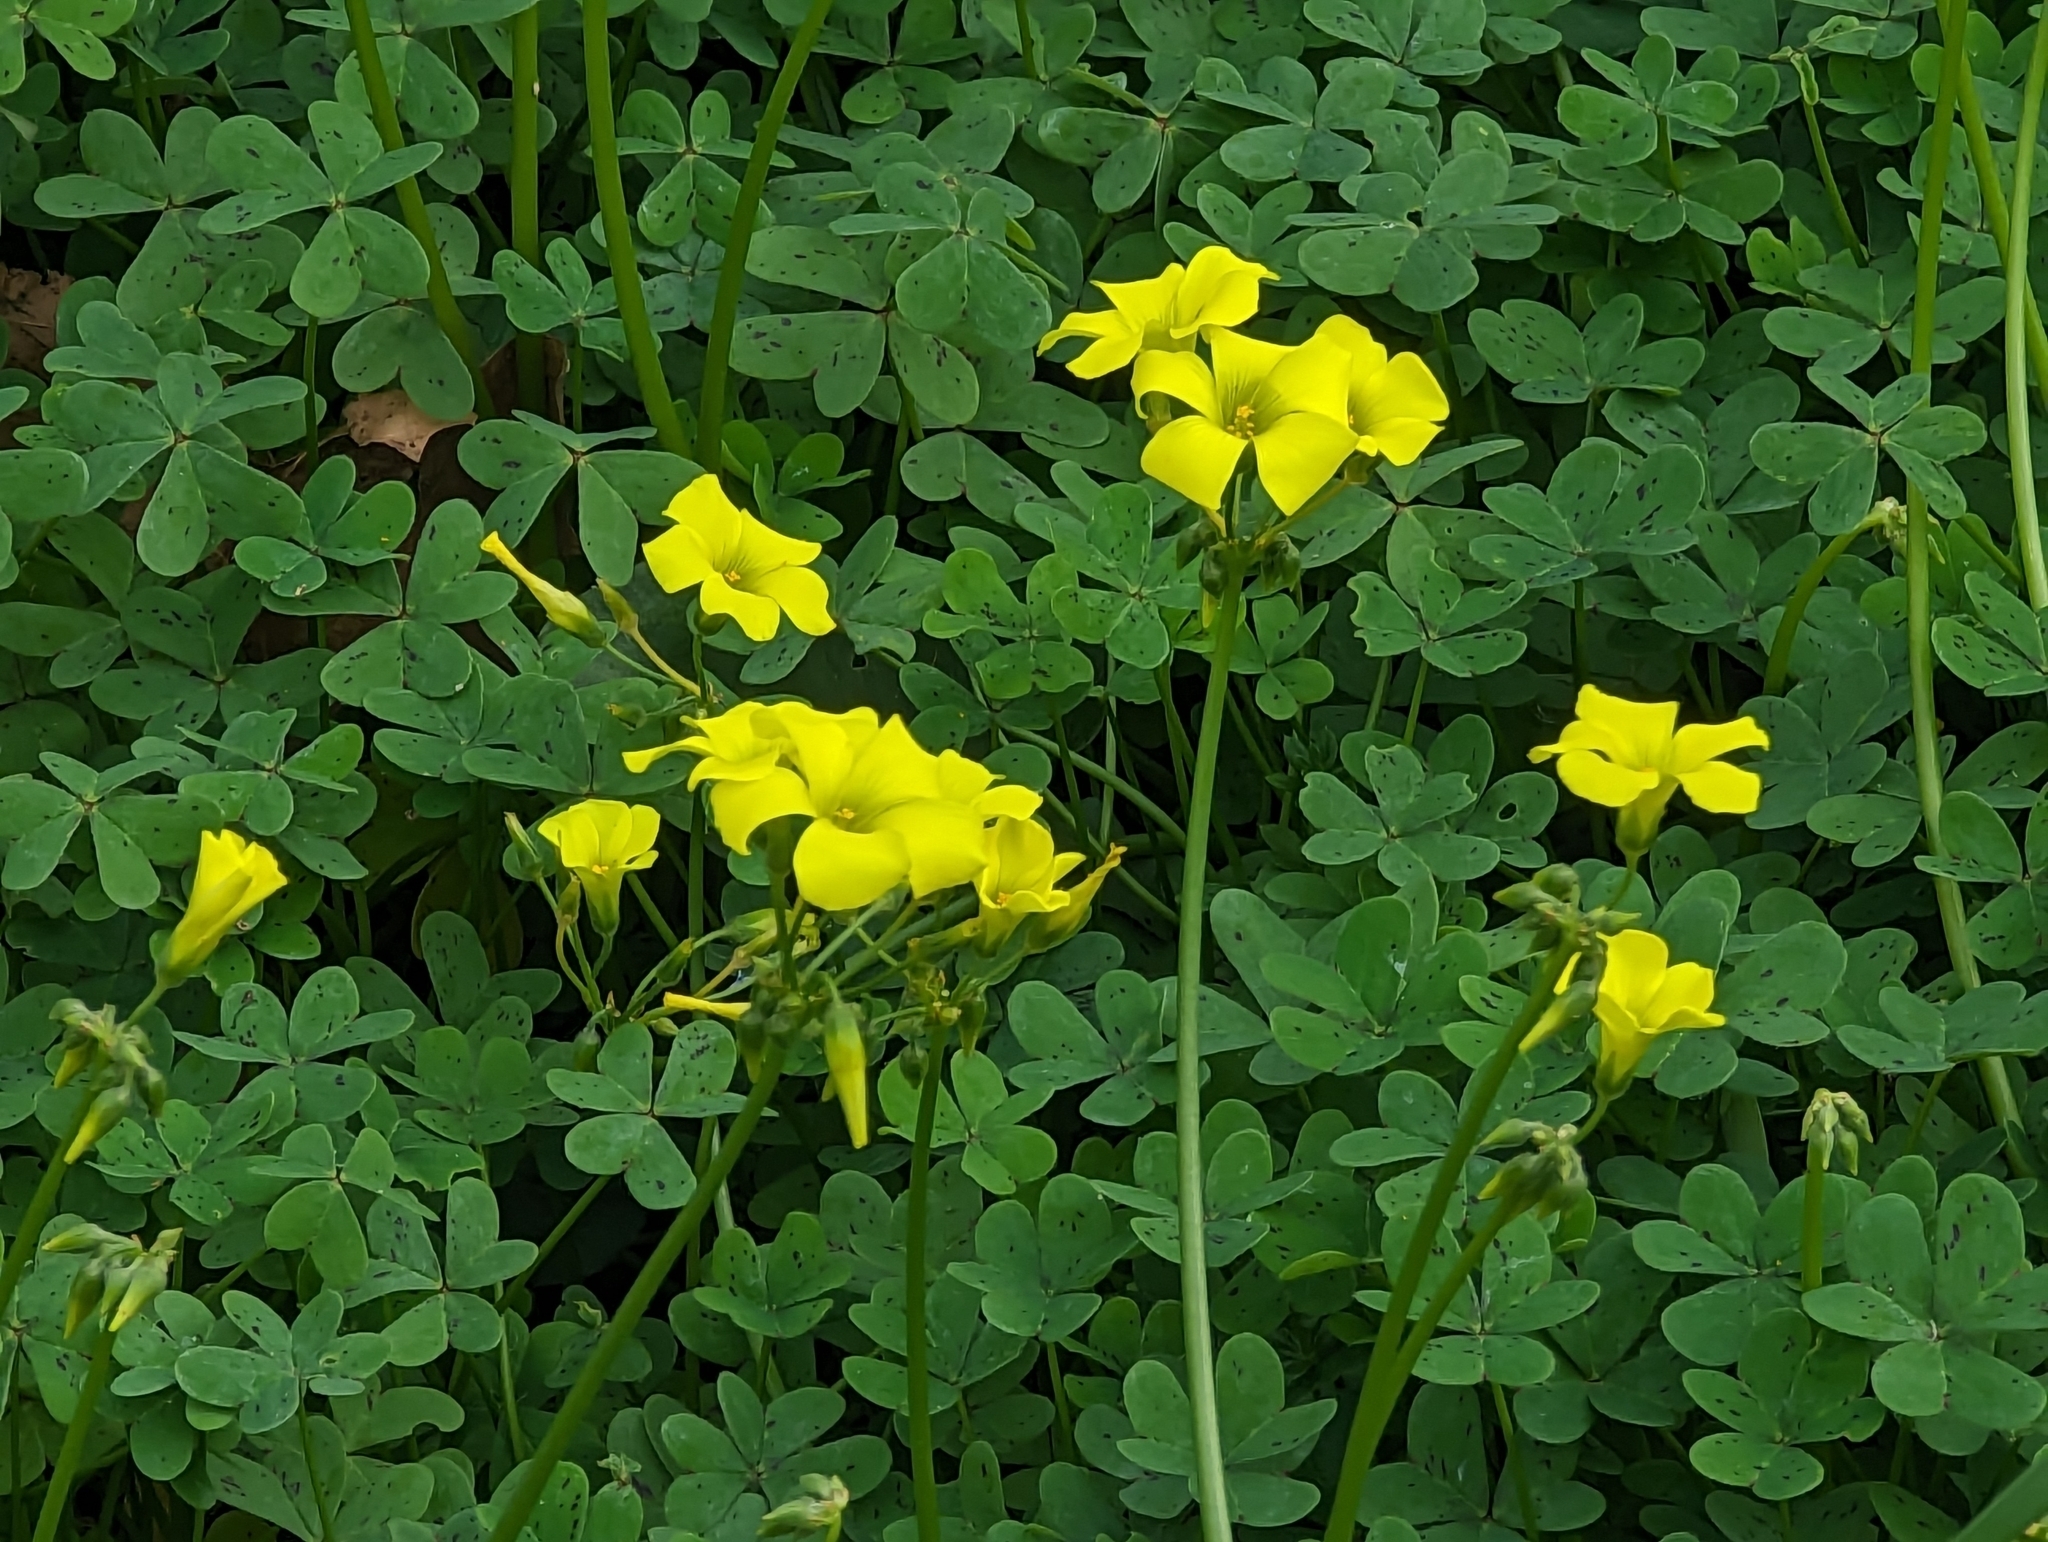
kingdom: Plantae
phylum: Tracheophyta
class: Magnoliopsida
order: Oxalidales
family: Oxalidaceae
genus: Oxalis
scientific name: Oxalis pes-caprae
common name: Bermuda-buttercup
